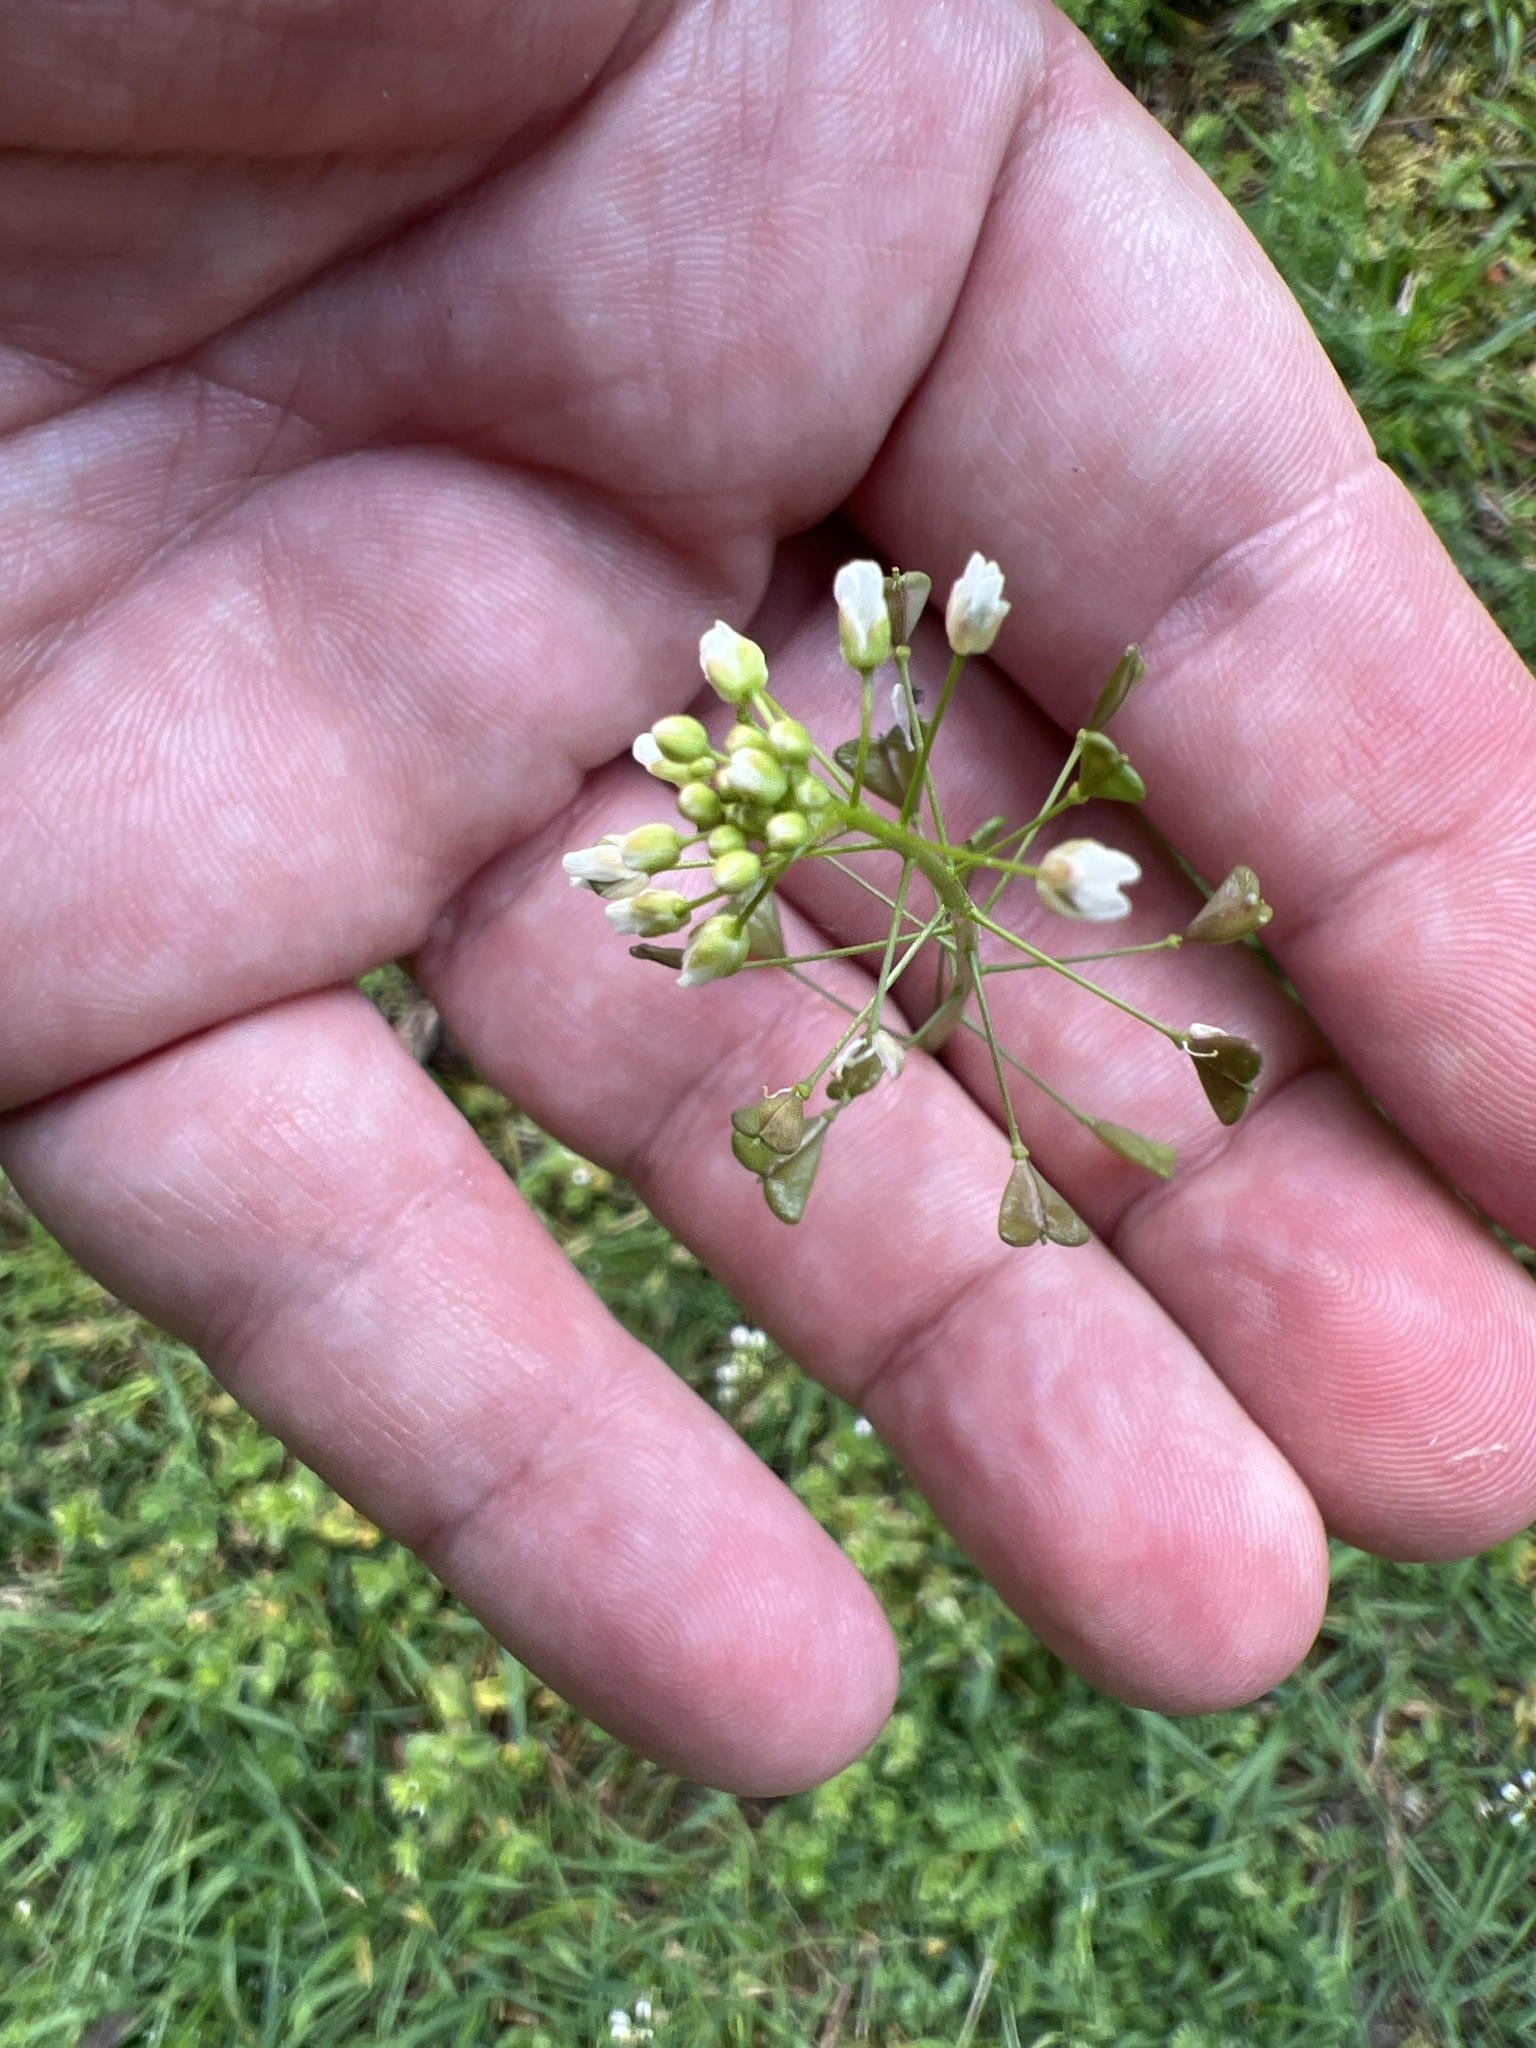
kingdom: Plantae
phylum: Tracheophyta
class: Magnoliopsida
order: Brassicales
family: Brassicaceae
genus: Capsella
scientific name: Capsella bursa-pastoris
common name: Shepherd's purse
